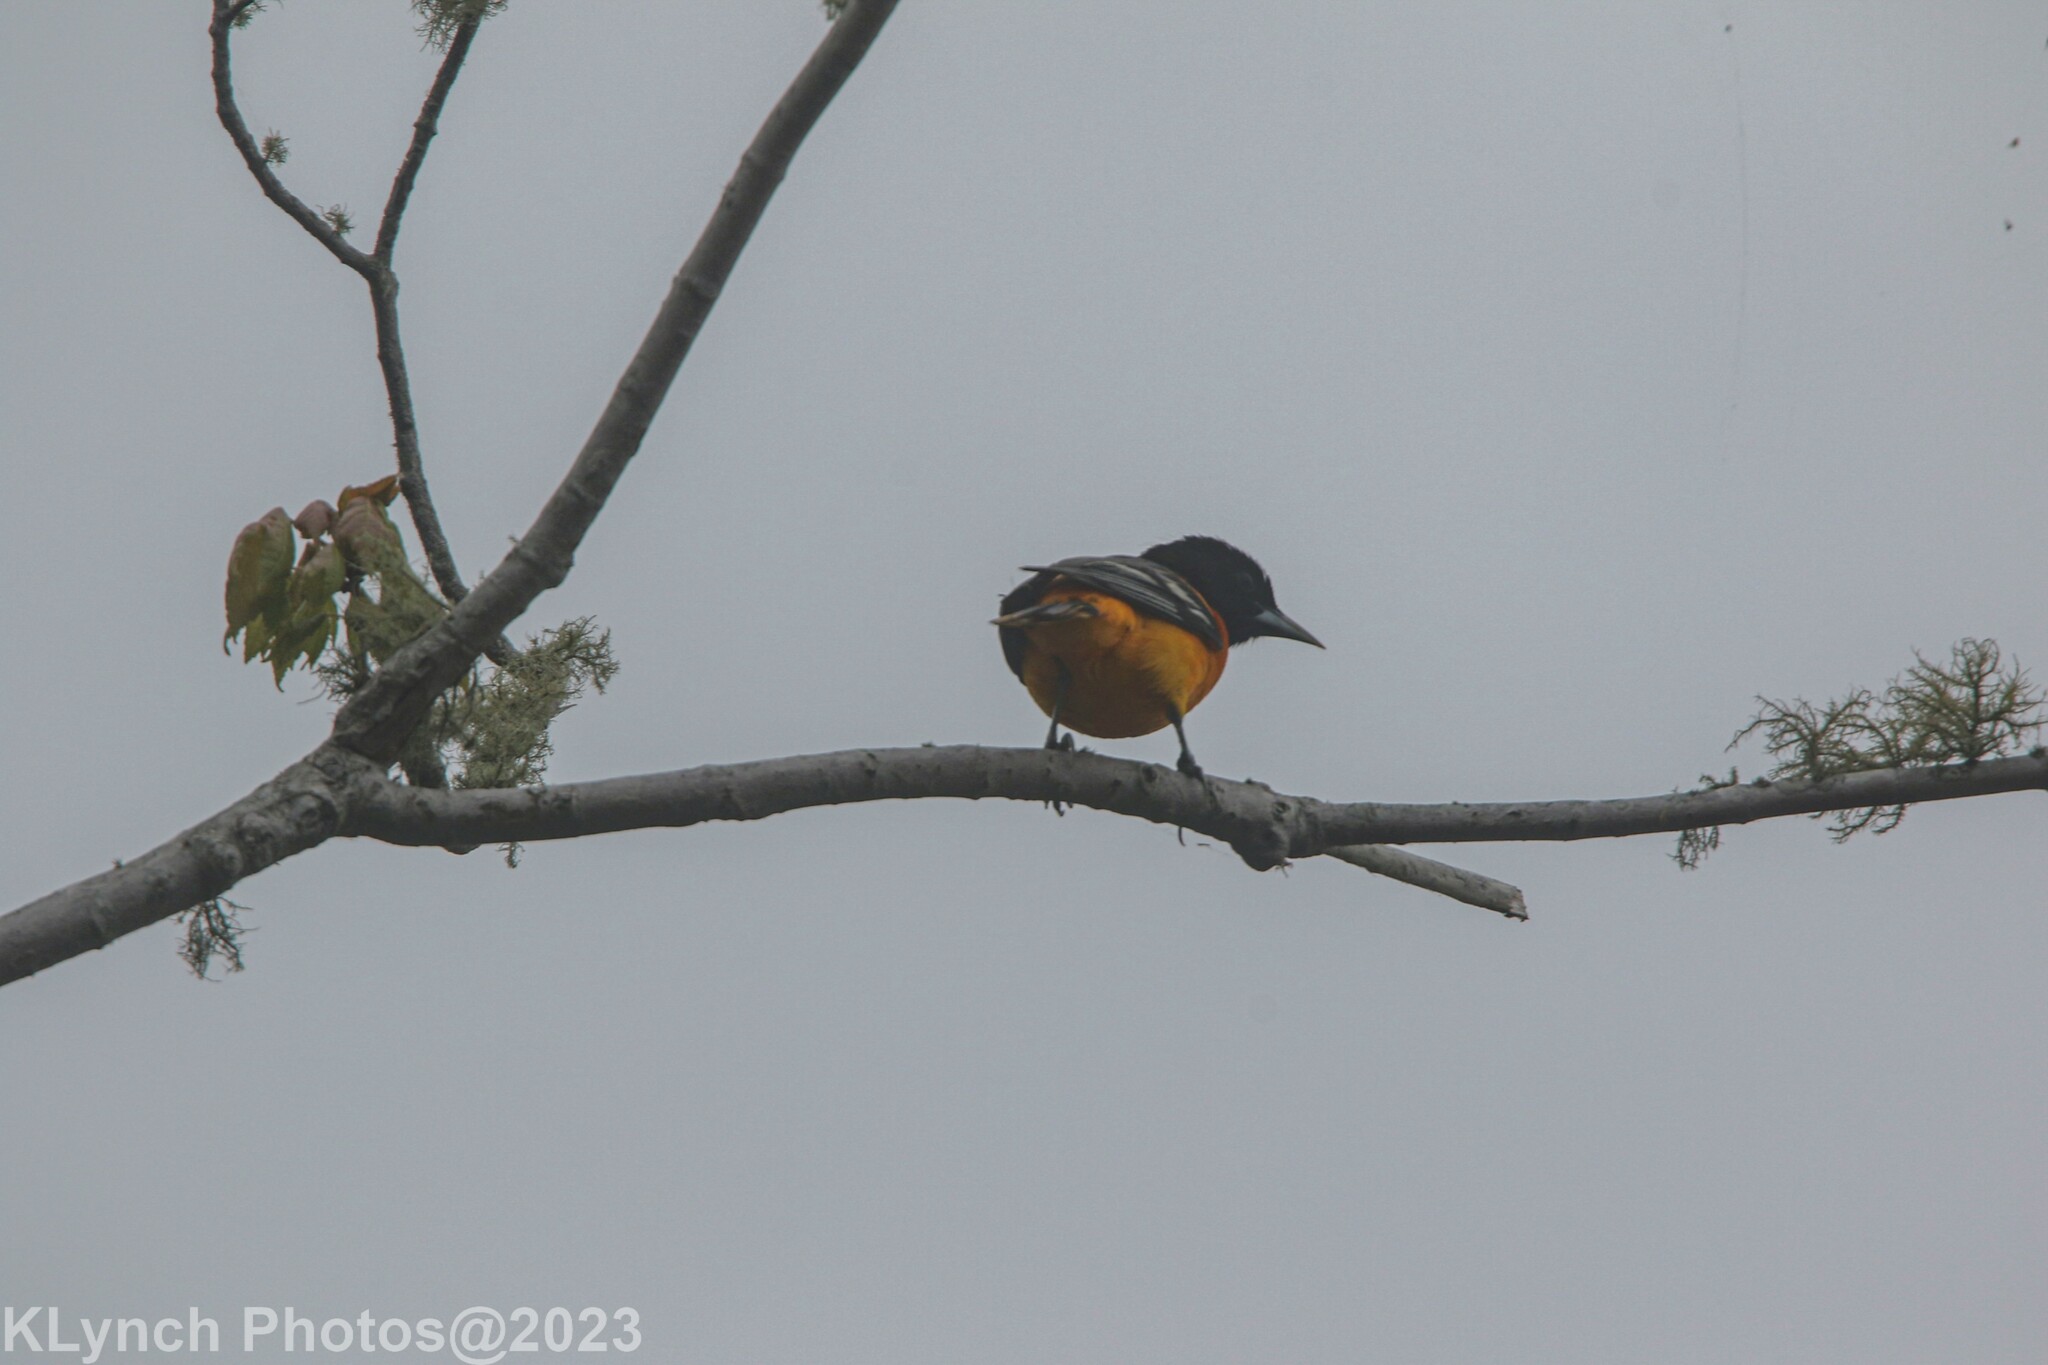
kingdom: Animalia
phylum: Chordata
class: Aves
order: Passeriformes
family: Icteridae
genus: Icterus
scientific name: Icterus galbula
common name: Baltimore oriole
